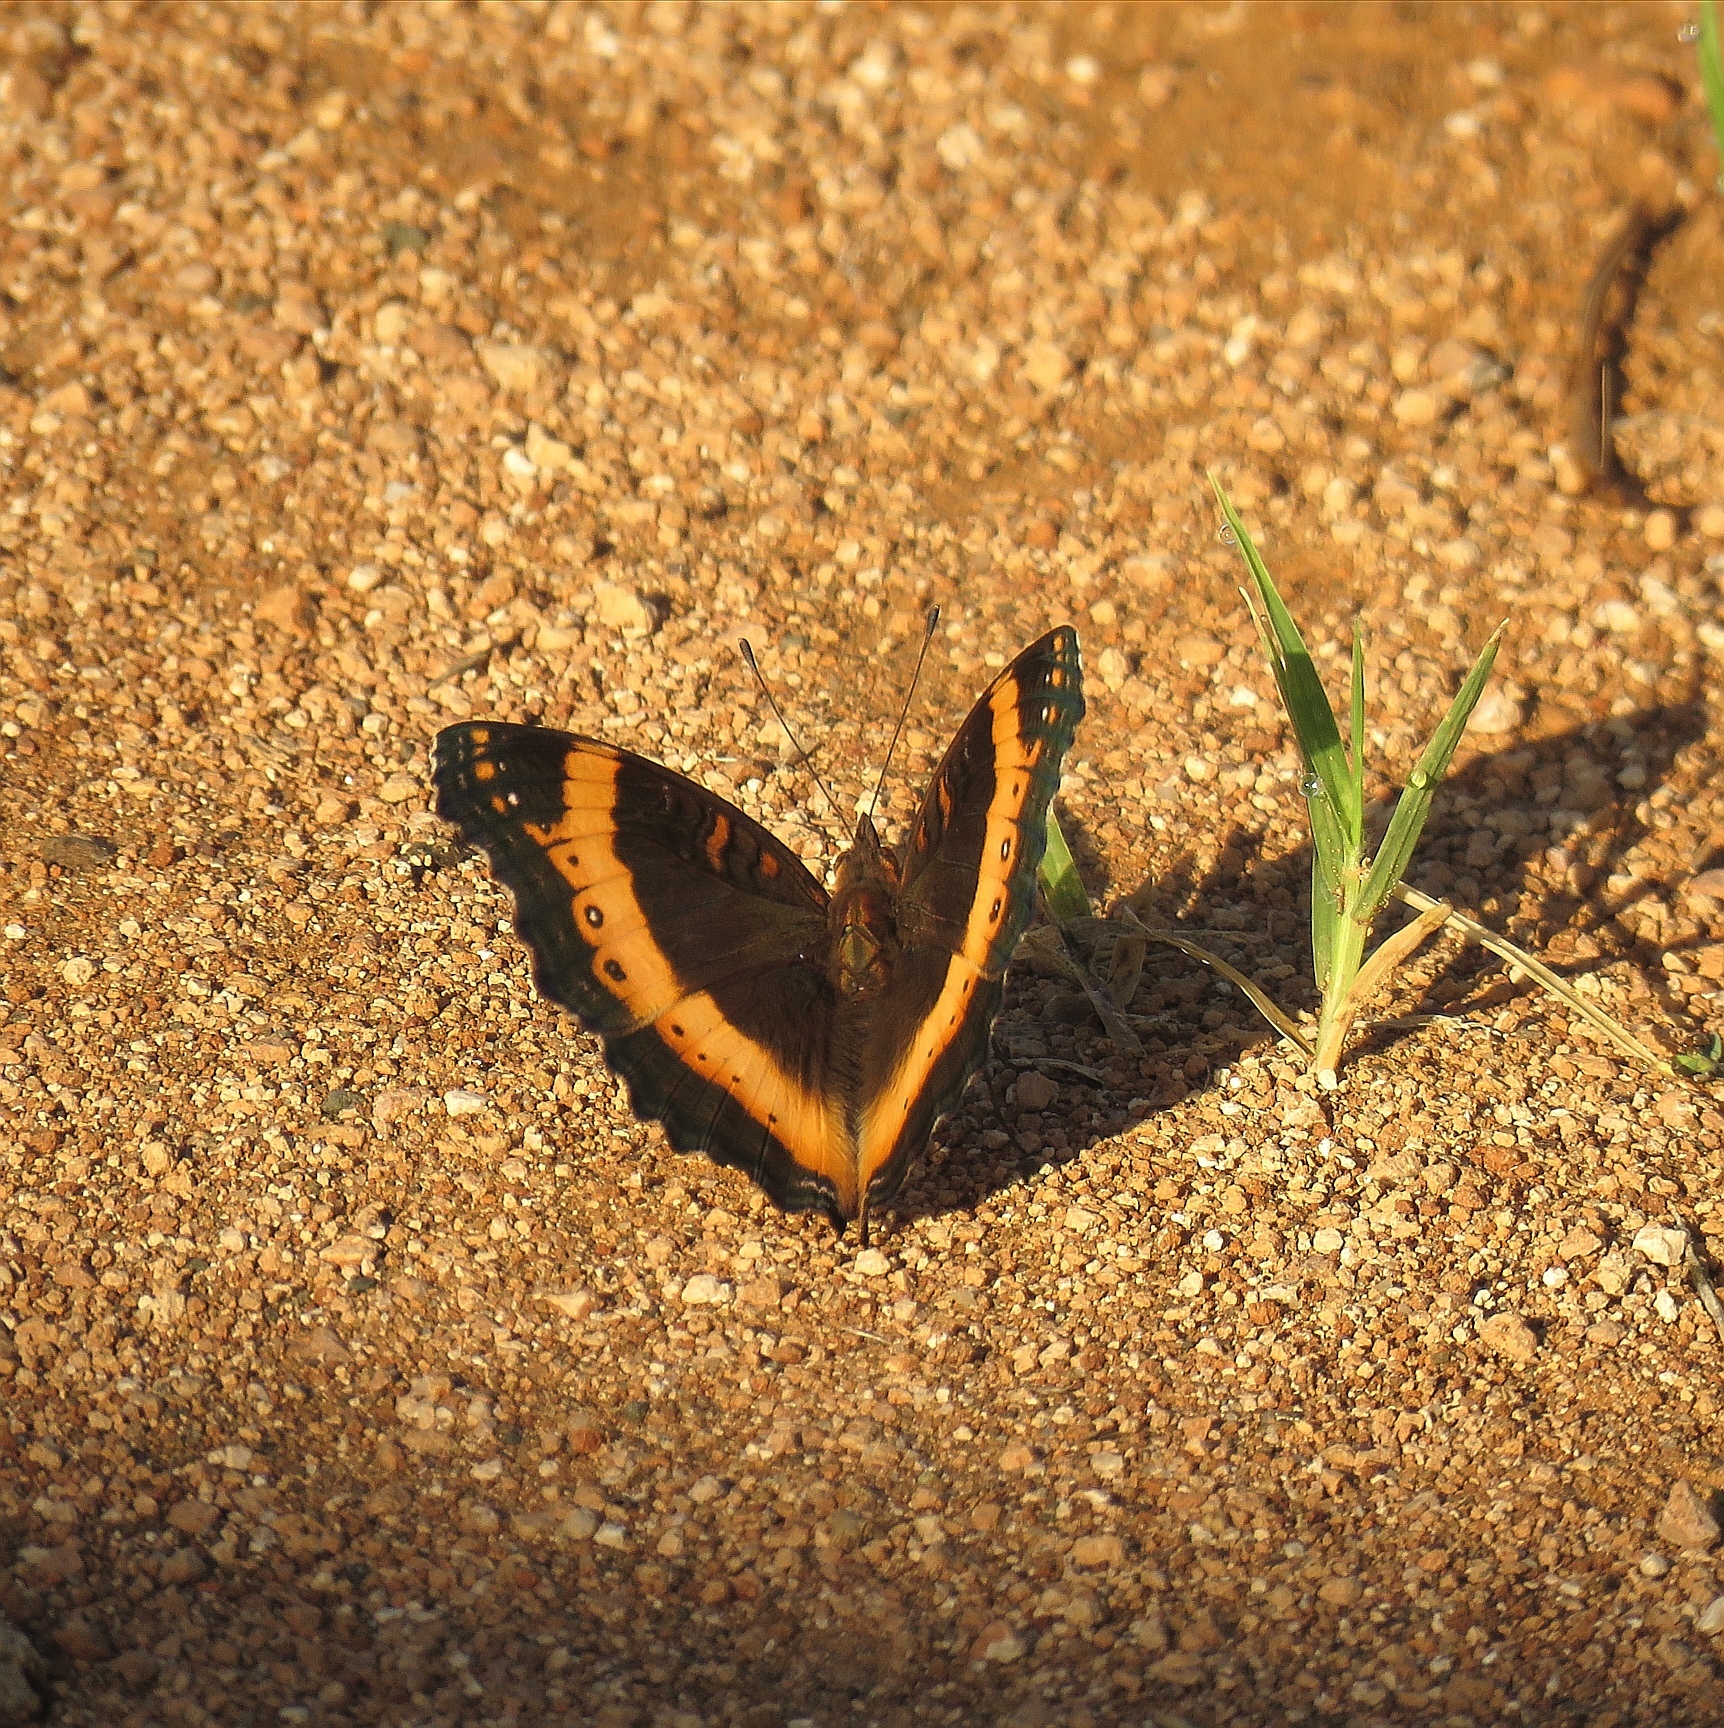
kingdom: Animalia
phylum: Arthropoda
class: Insecta
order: Lepidoptera
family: Nymphalidae
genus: Junonia
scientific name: Junonia archesia
